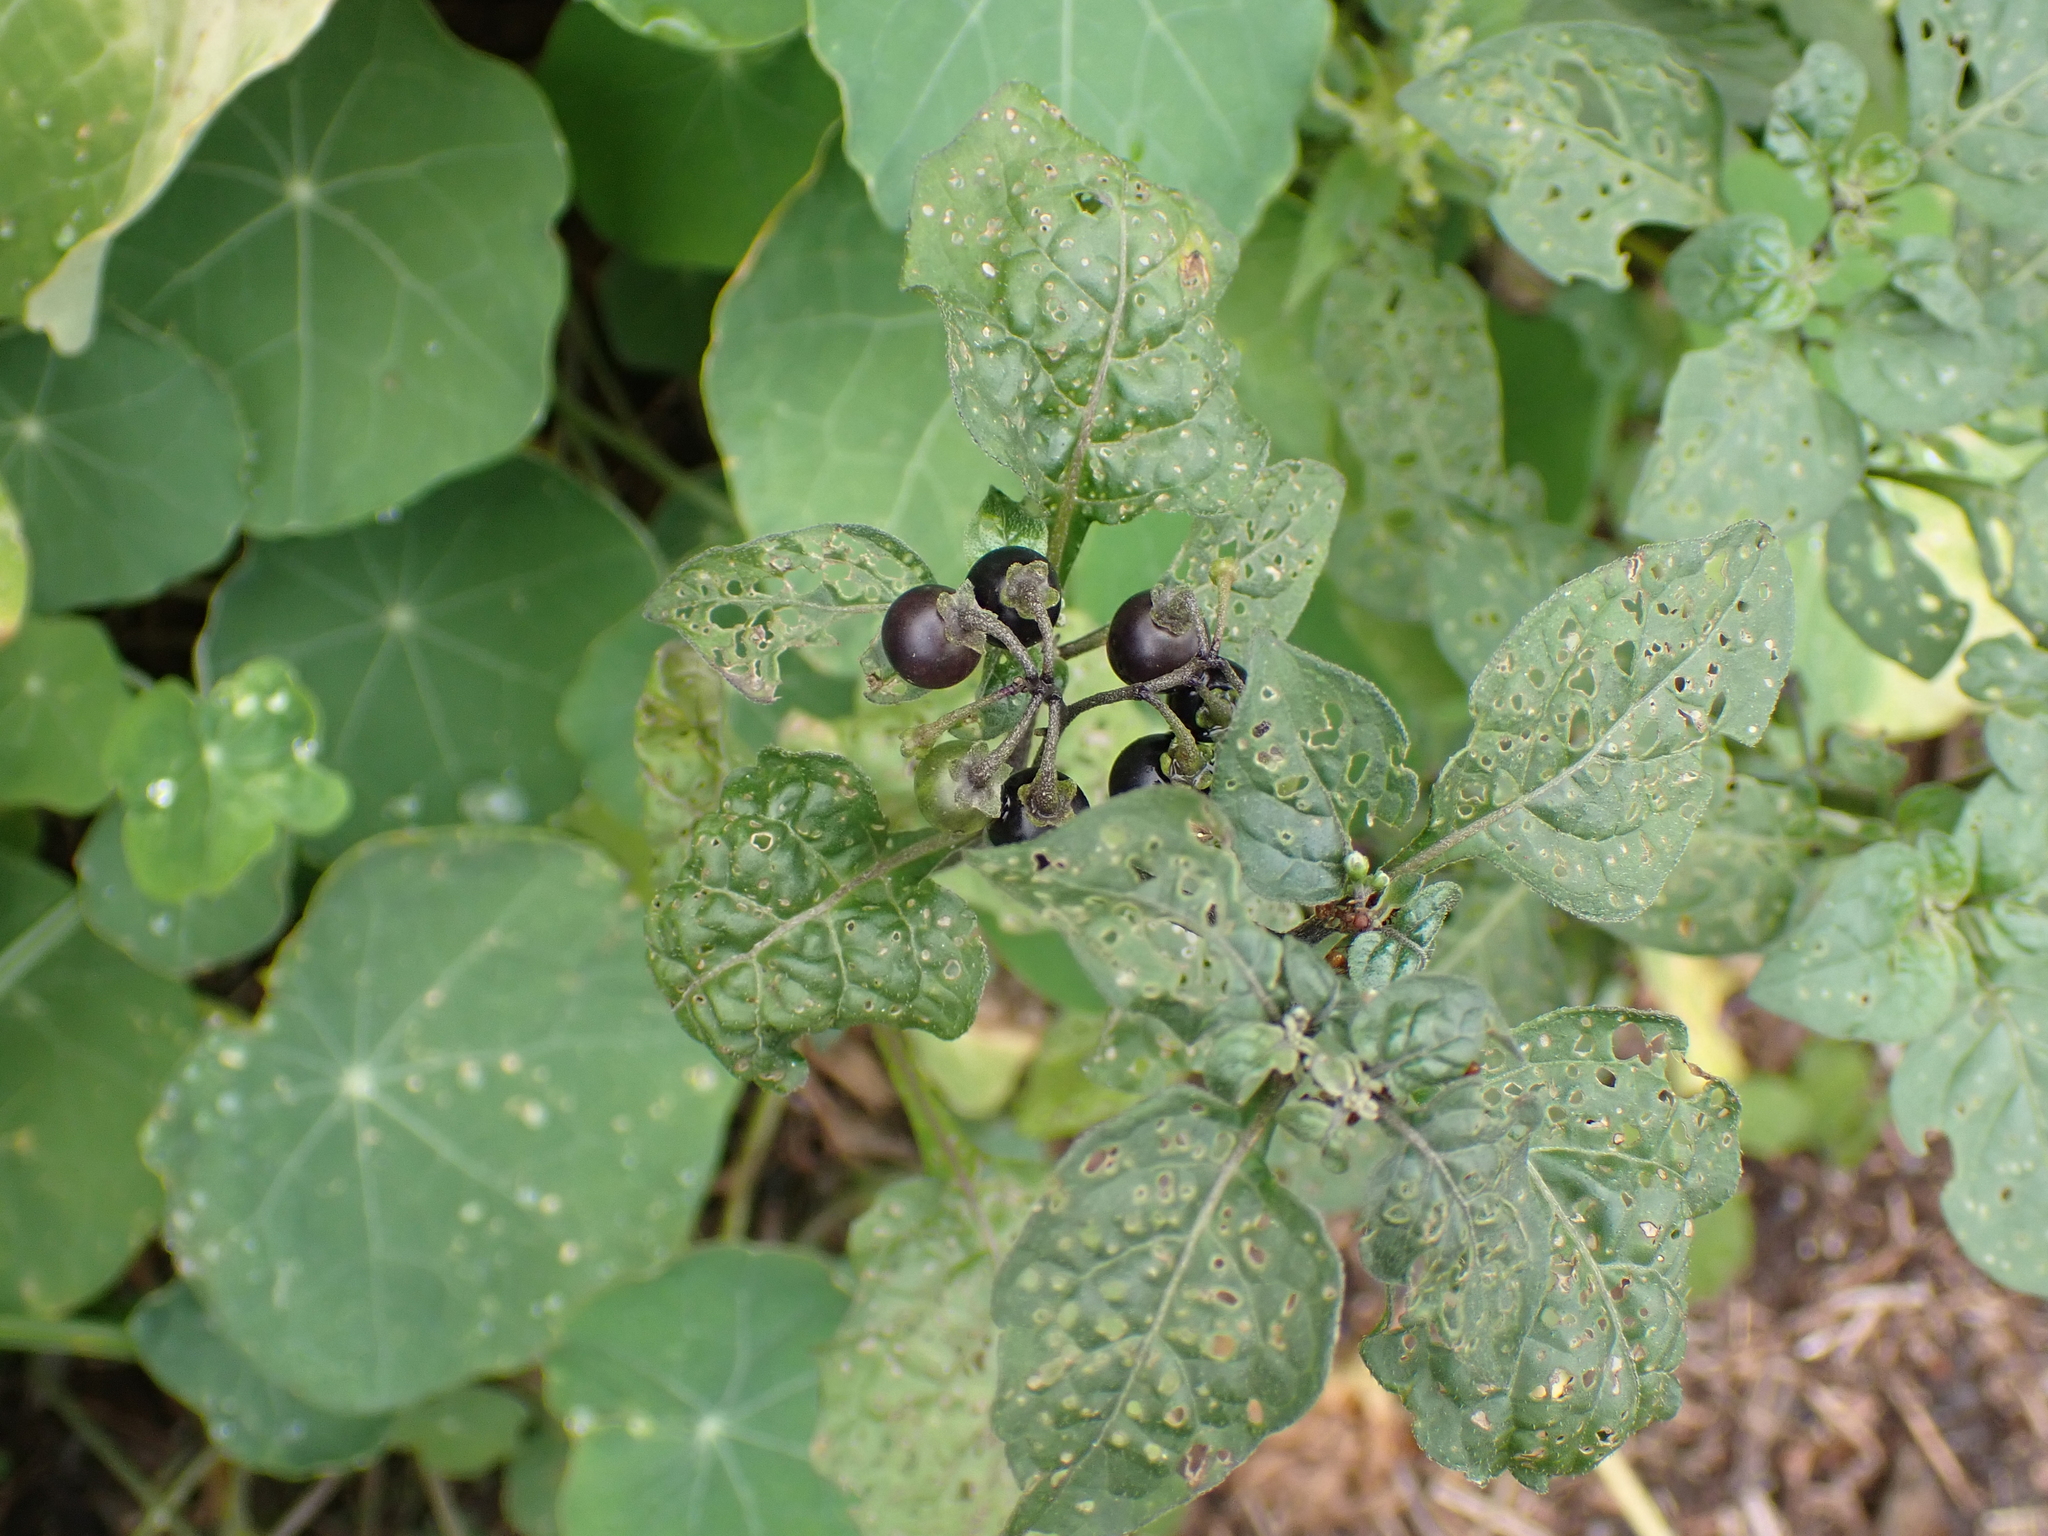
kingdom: Plantae
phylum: Tracheophyta
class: Magnoliopsida
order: Solanales
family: Solanaceae
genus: Solanum
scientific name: Solanum nigrum
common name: Black nightshade
